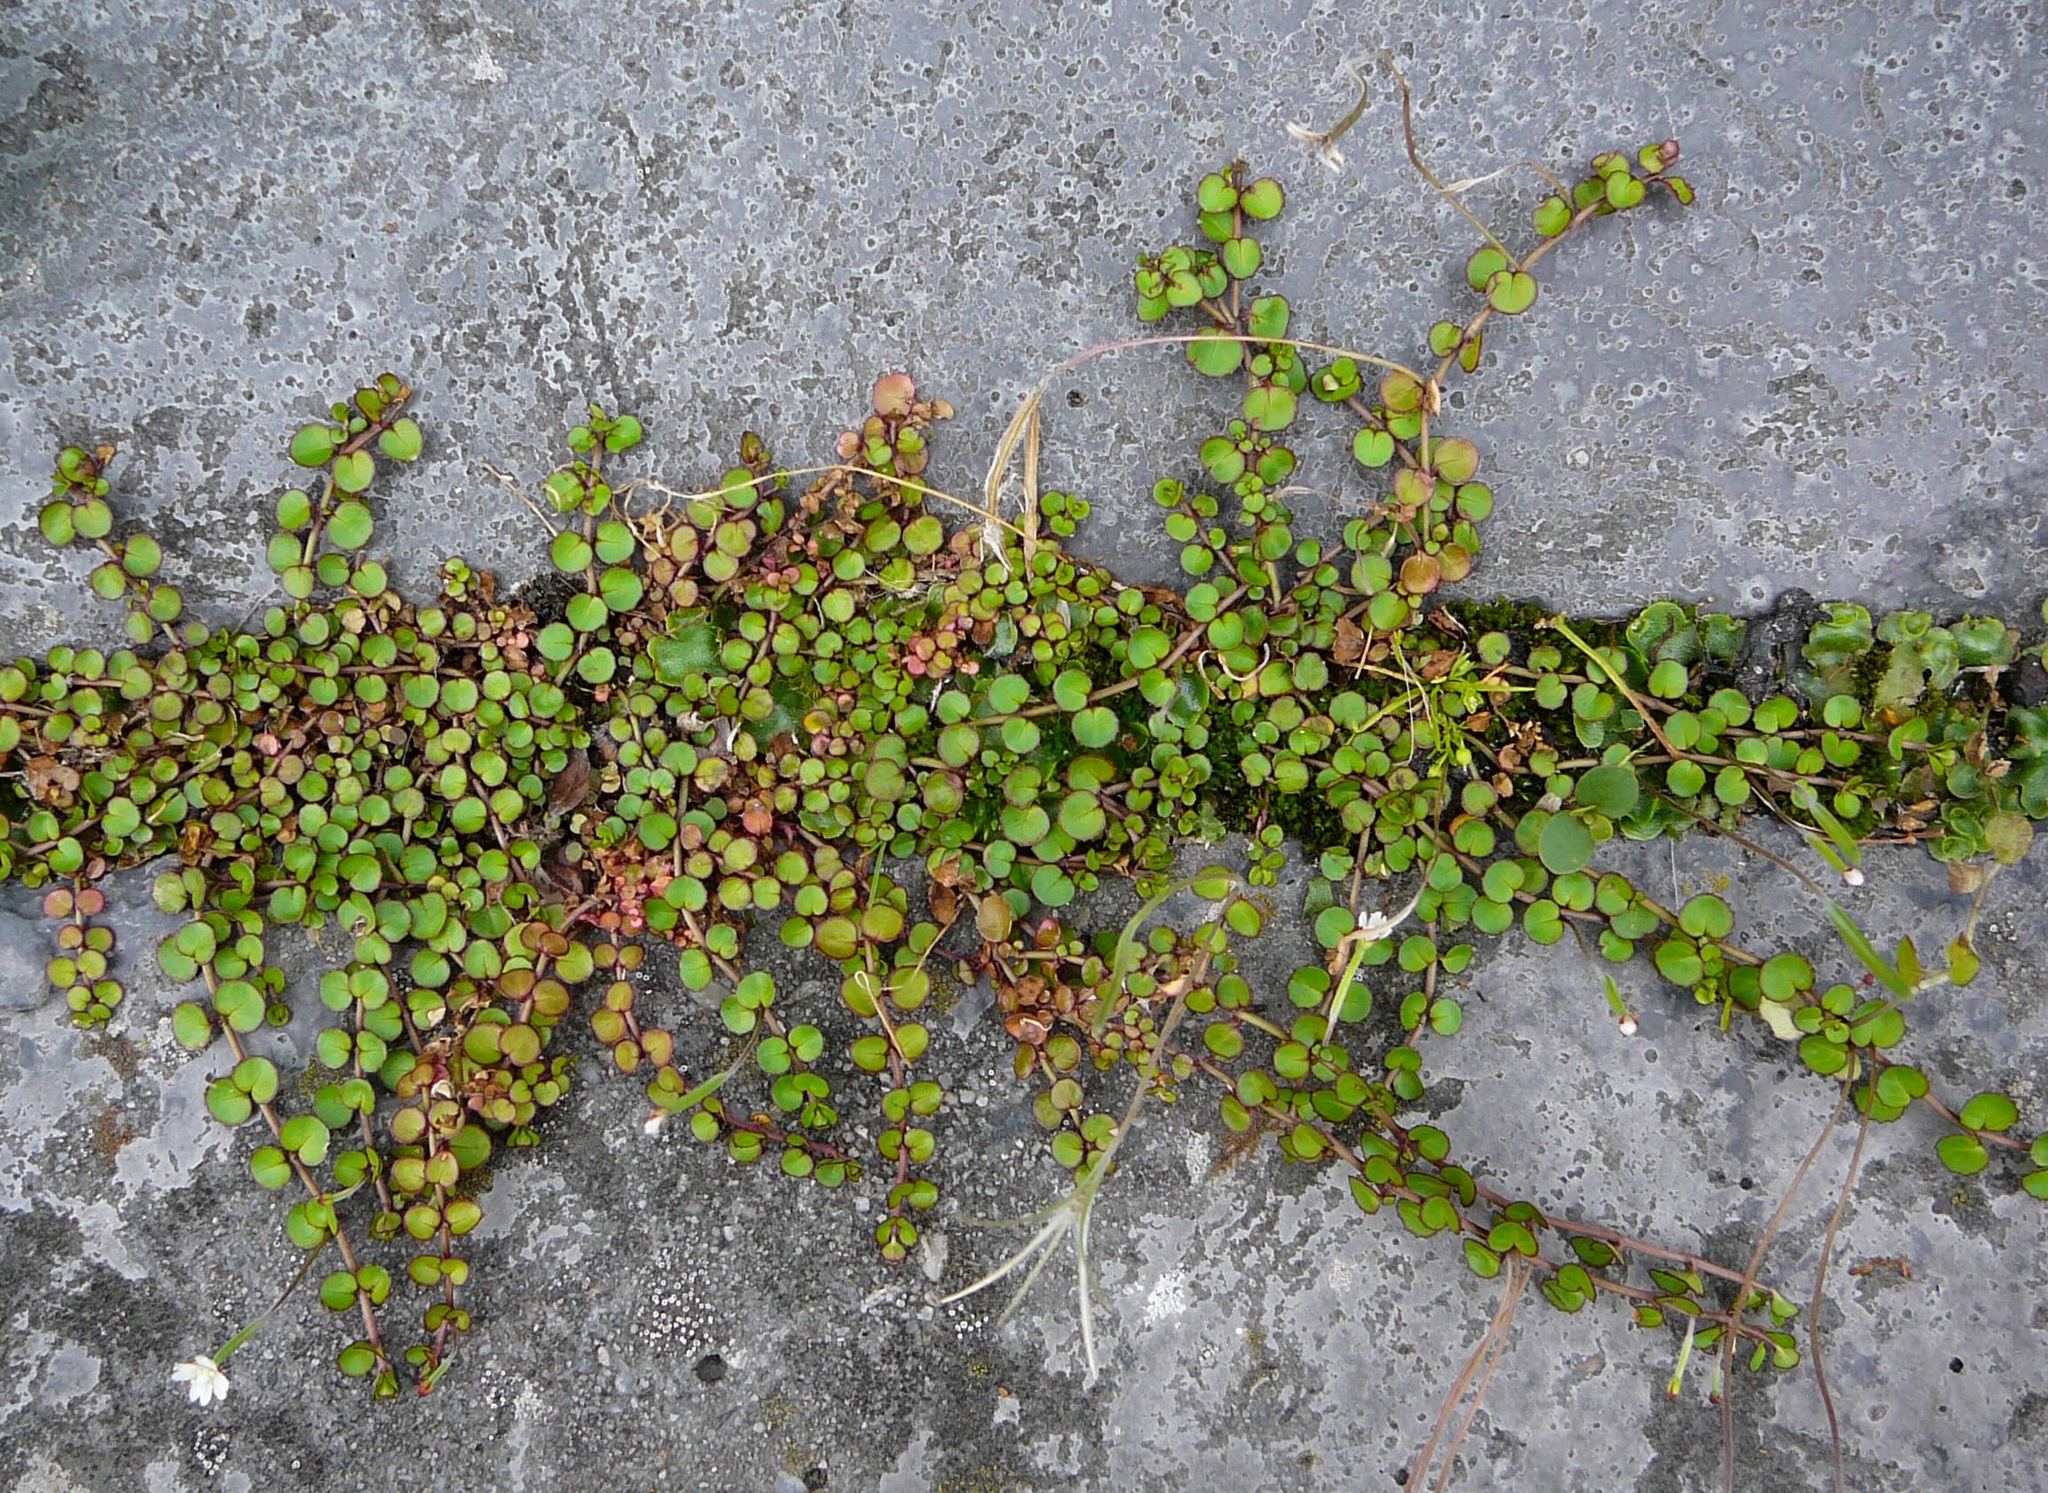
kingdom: Plantae
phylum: Tracheophyta
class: Magnoliopsida
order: Myrtales
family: Onagraceae
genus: Epilobium
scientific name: Epilobium nummularifolium
